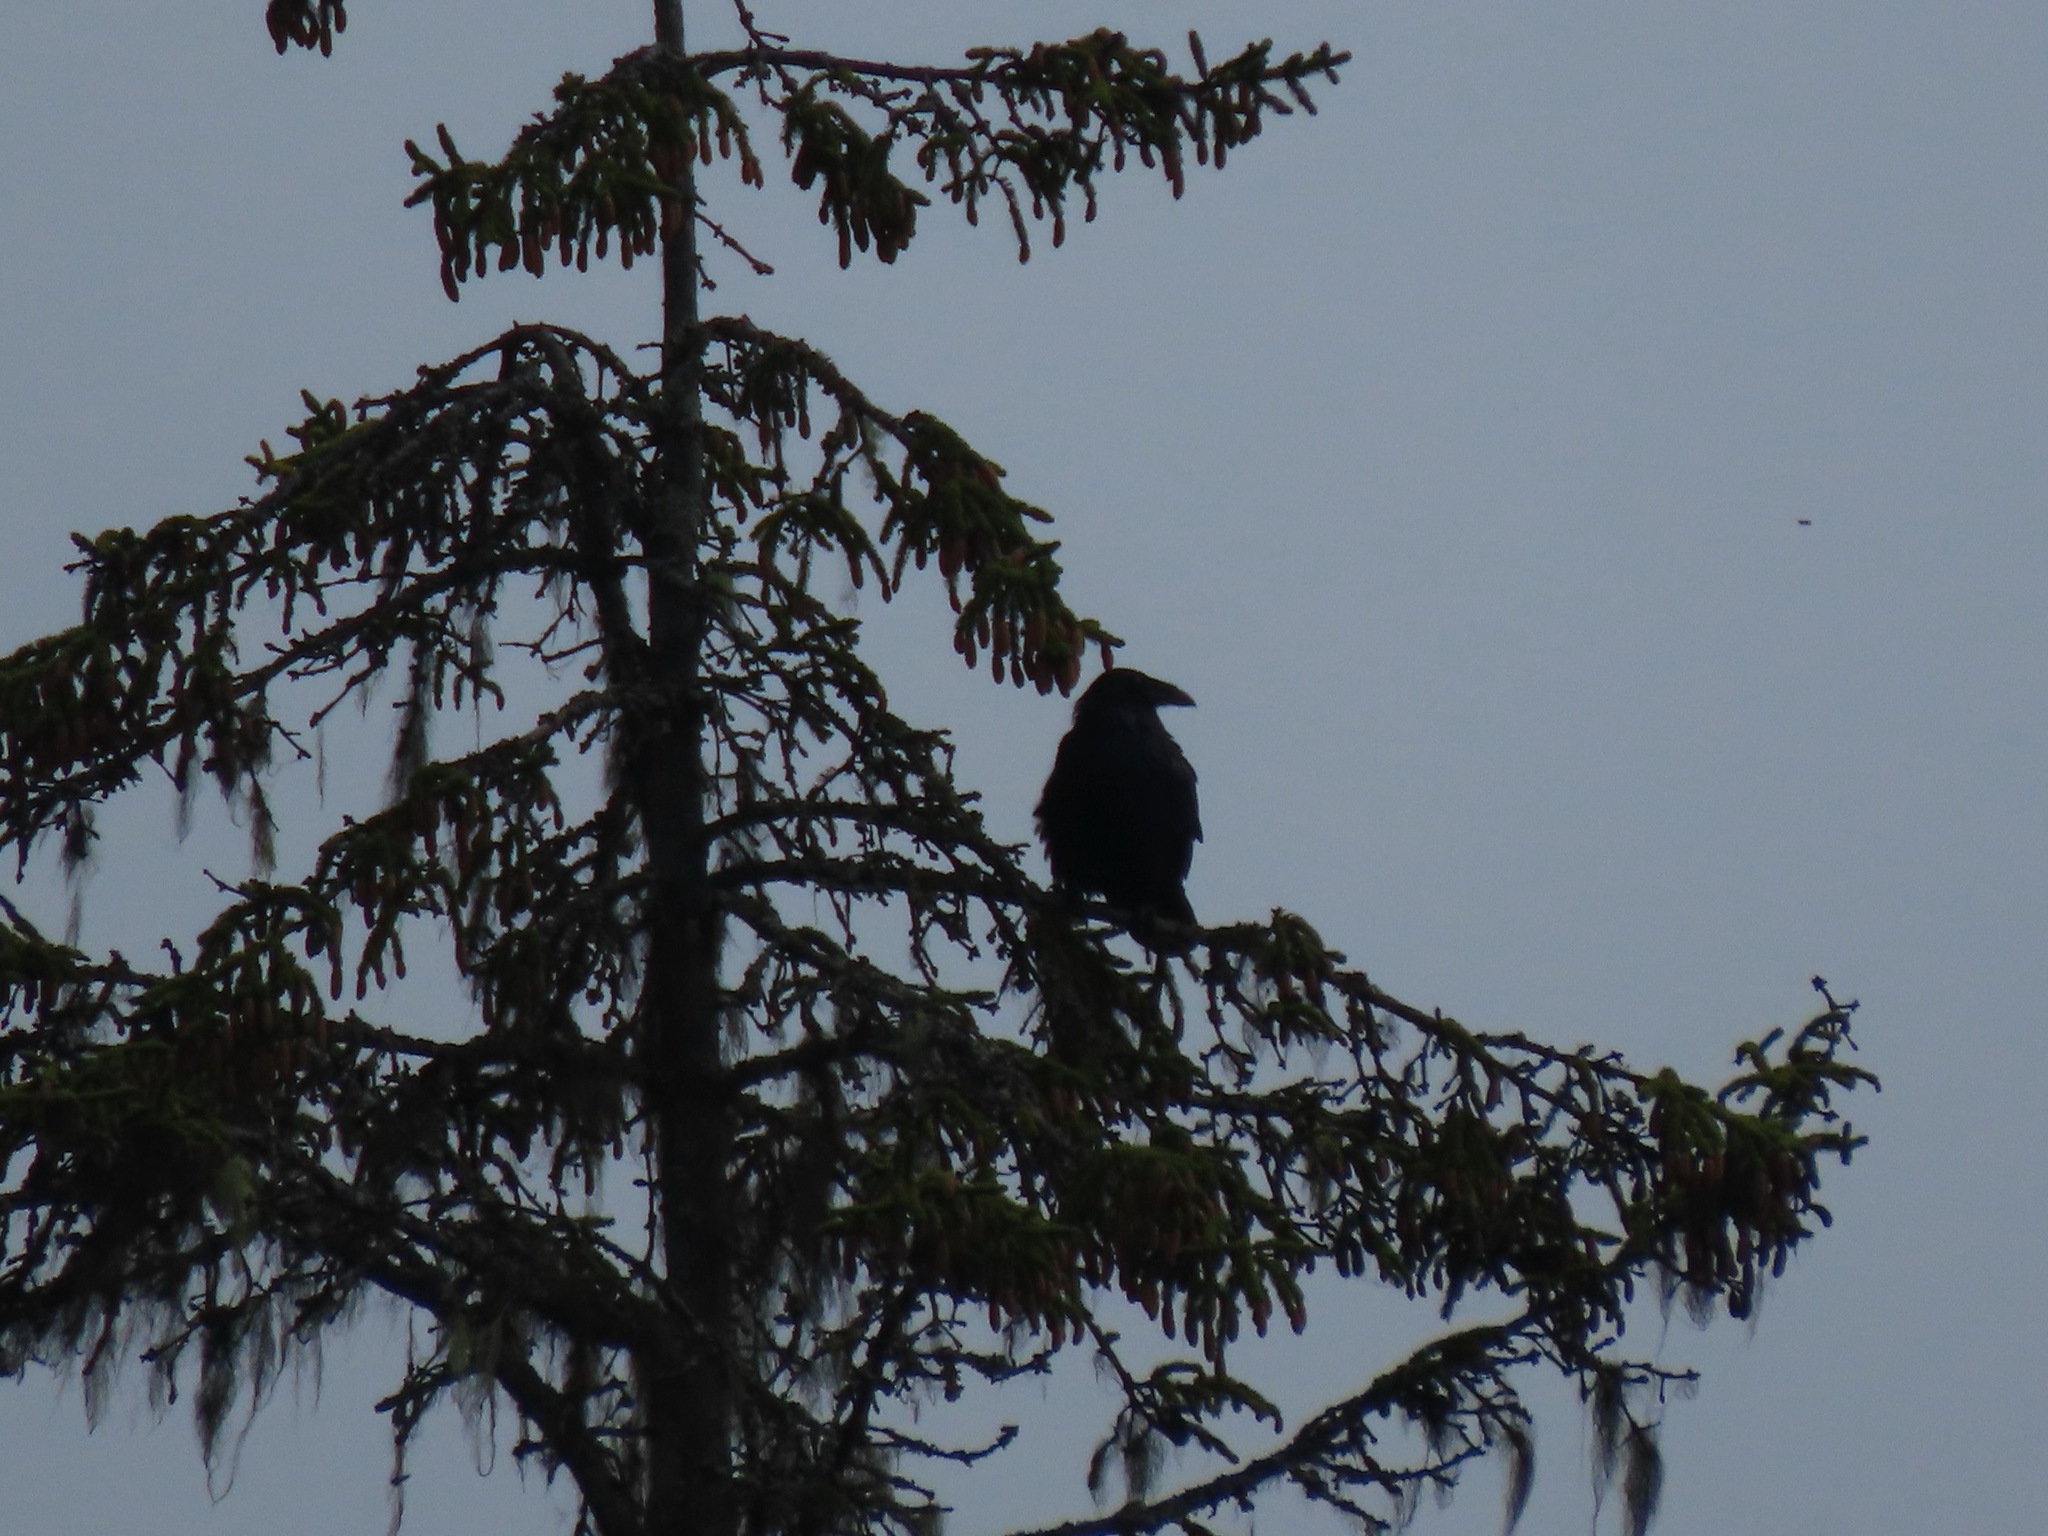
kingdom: Animalia
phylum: Chordata
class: Aves
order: Passeriformes
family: Corvidae
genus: Corvus
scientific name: Corvus corax
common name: Common raven
